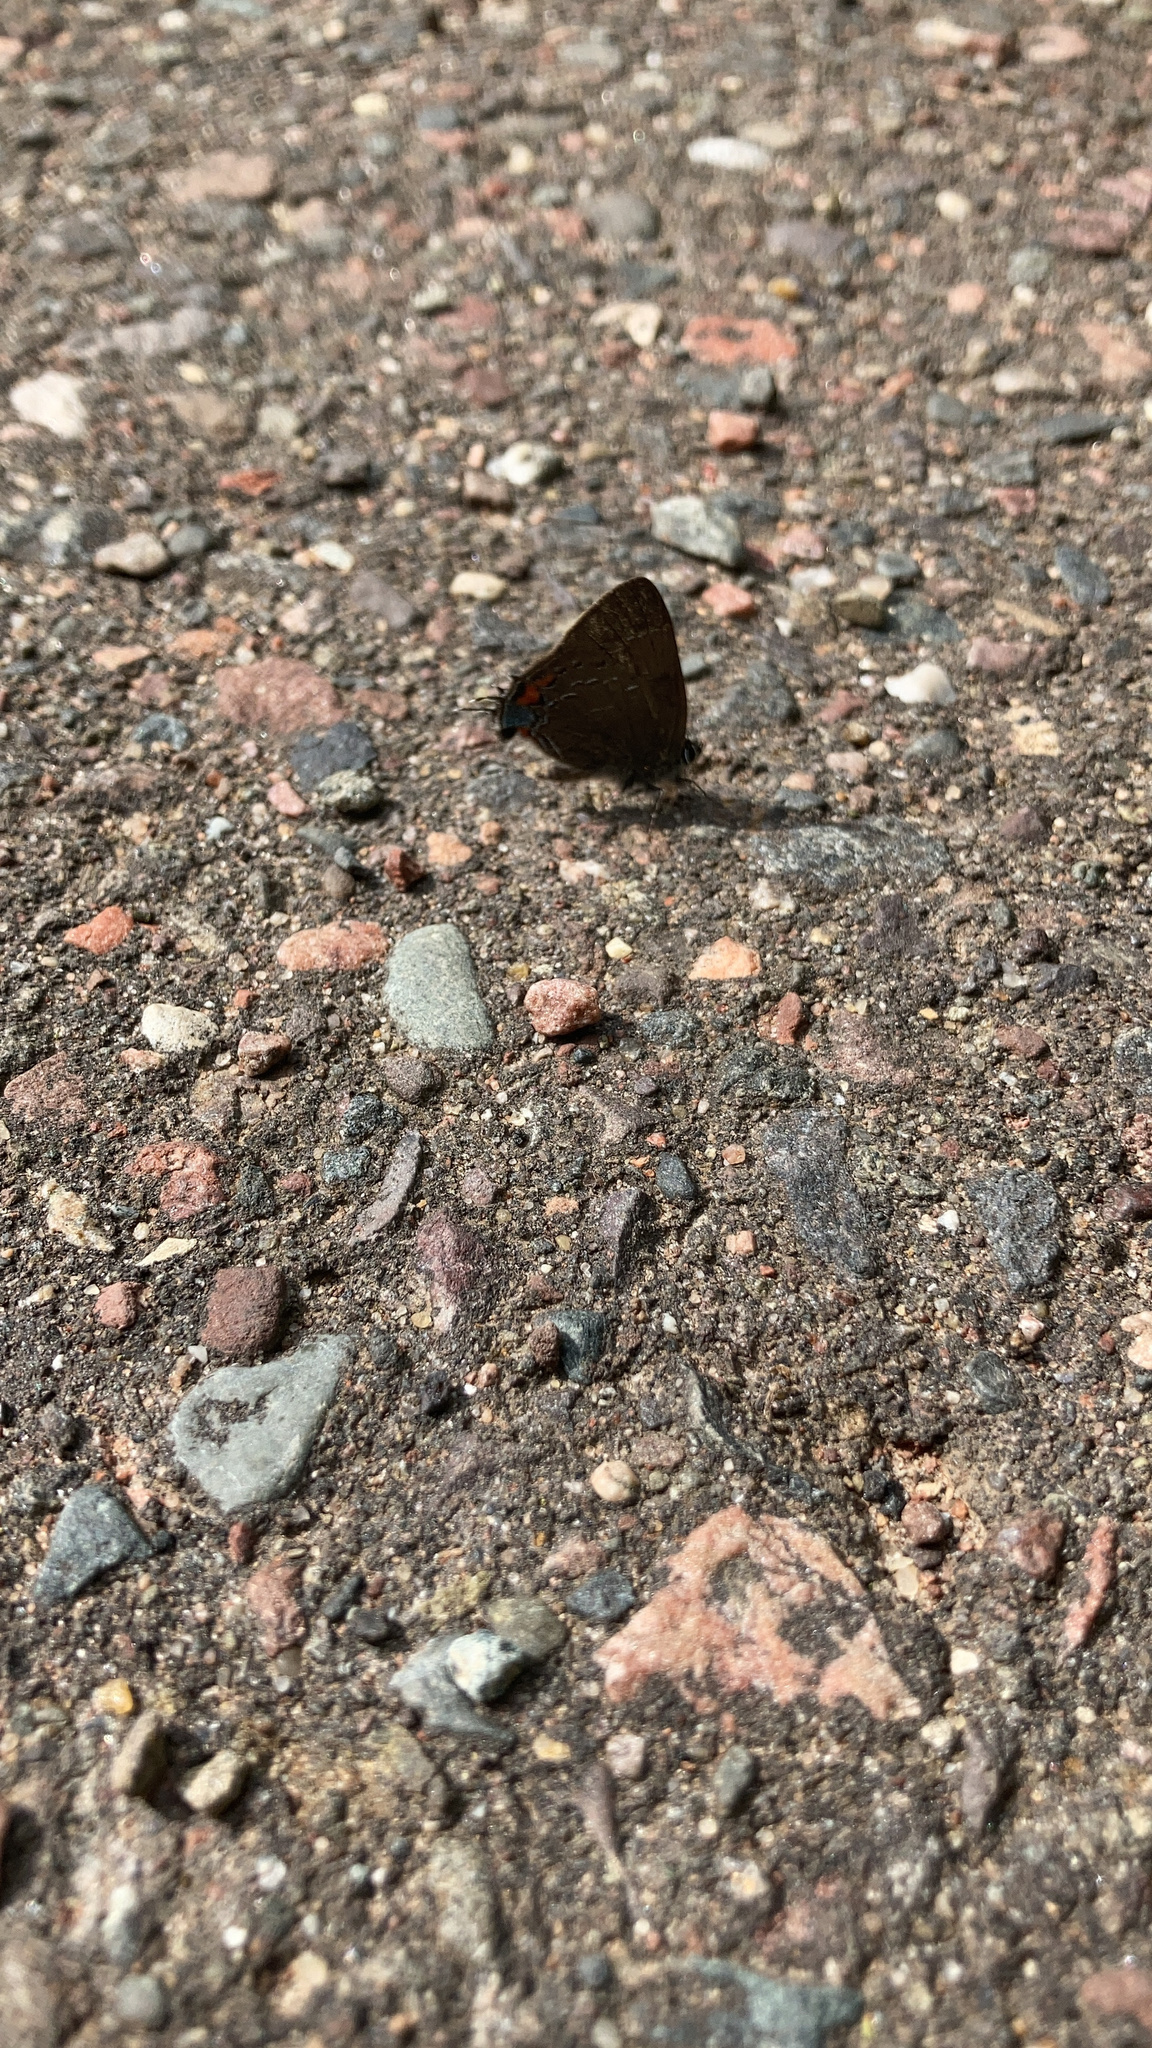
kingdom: Animalia
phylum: Arthropoda
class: Insecta
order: Lepidoptera
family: Lycaenidae
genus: Satyrium
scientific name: Satyrium calanus
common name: Banded hairstreak
